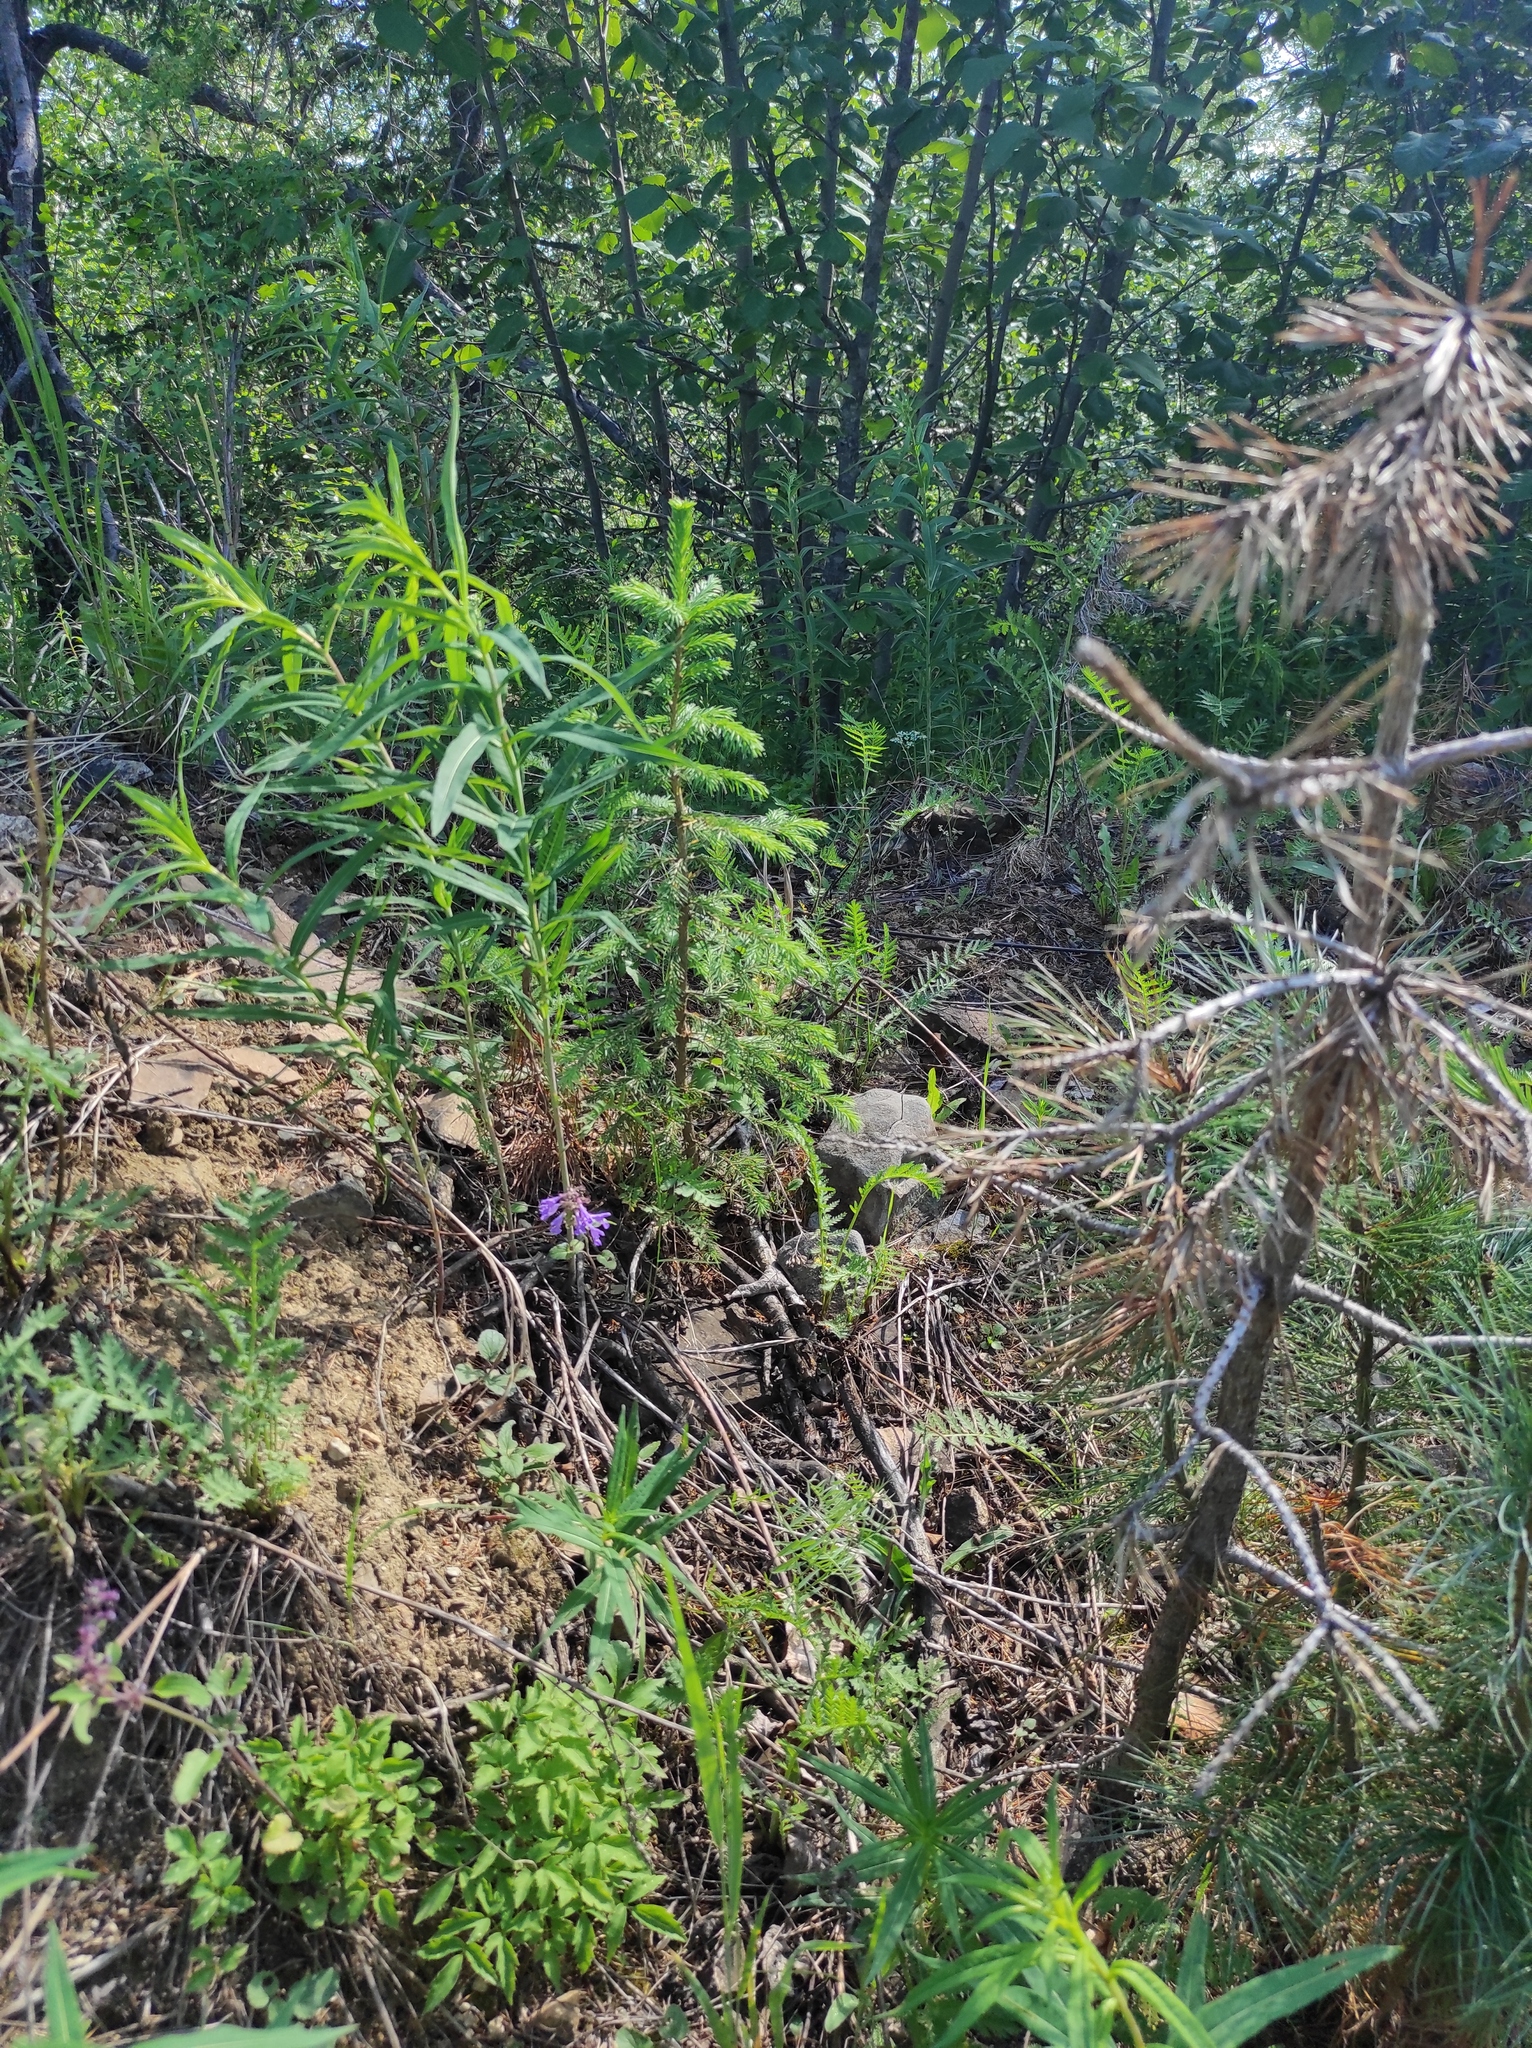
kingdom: Plantae
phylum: Tracheophyta
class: Magnoliopsida
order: Lamiales
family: Lamiaceae
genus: Dracocephalum
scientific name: Dracocephalum nutans
